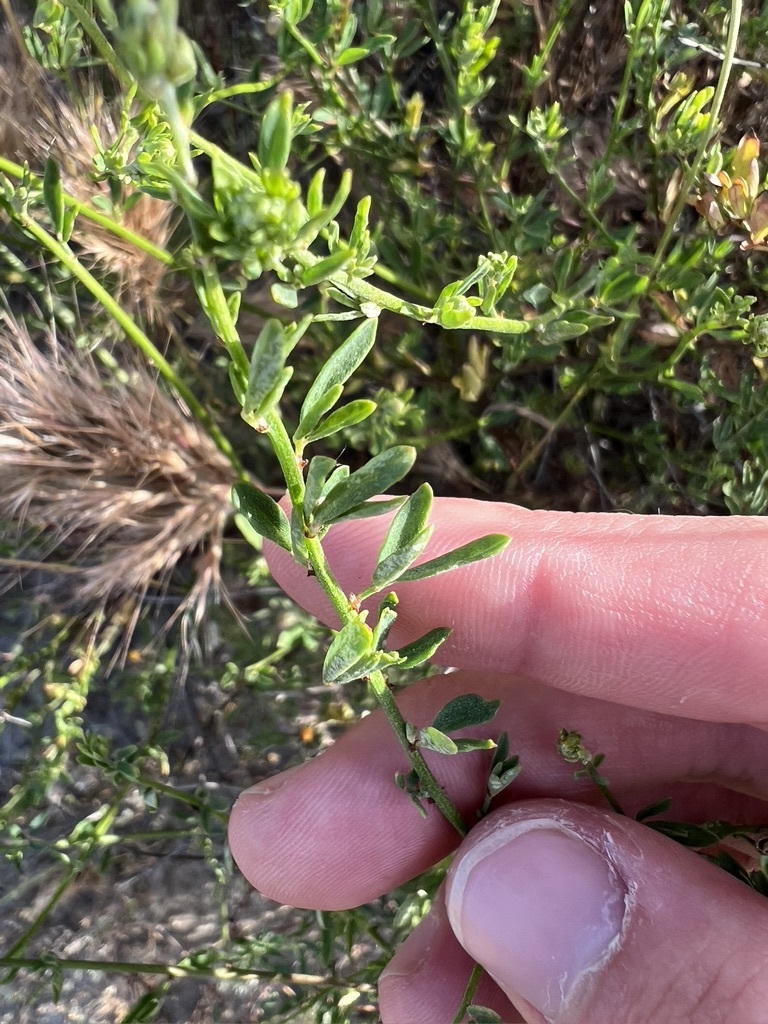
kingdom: Plantae
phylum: Tracheophyta
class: Magnoliopsida
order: Fabales
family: Fabaceae
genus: Acmispon
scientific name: Acmispon glaber
